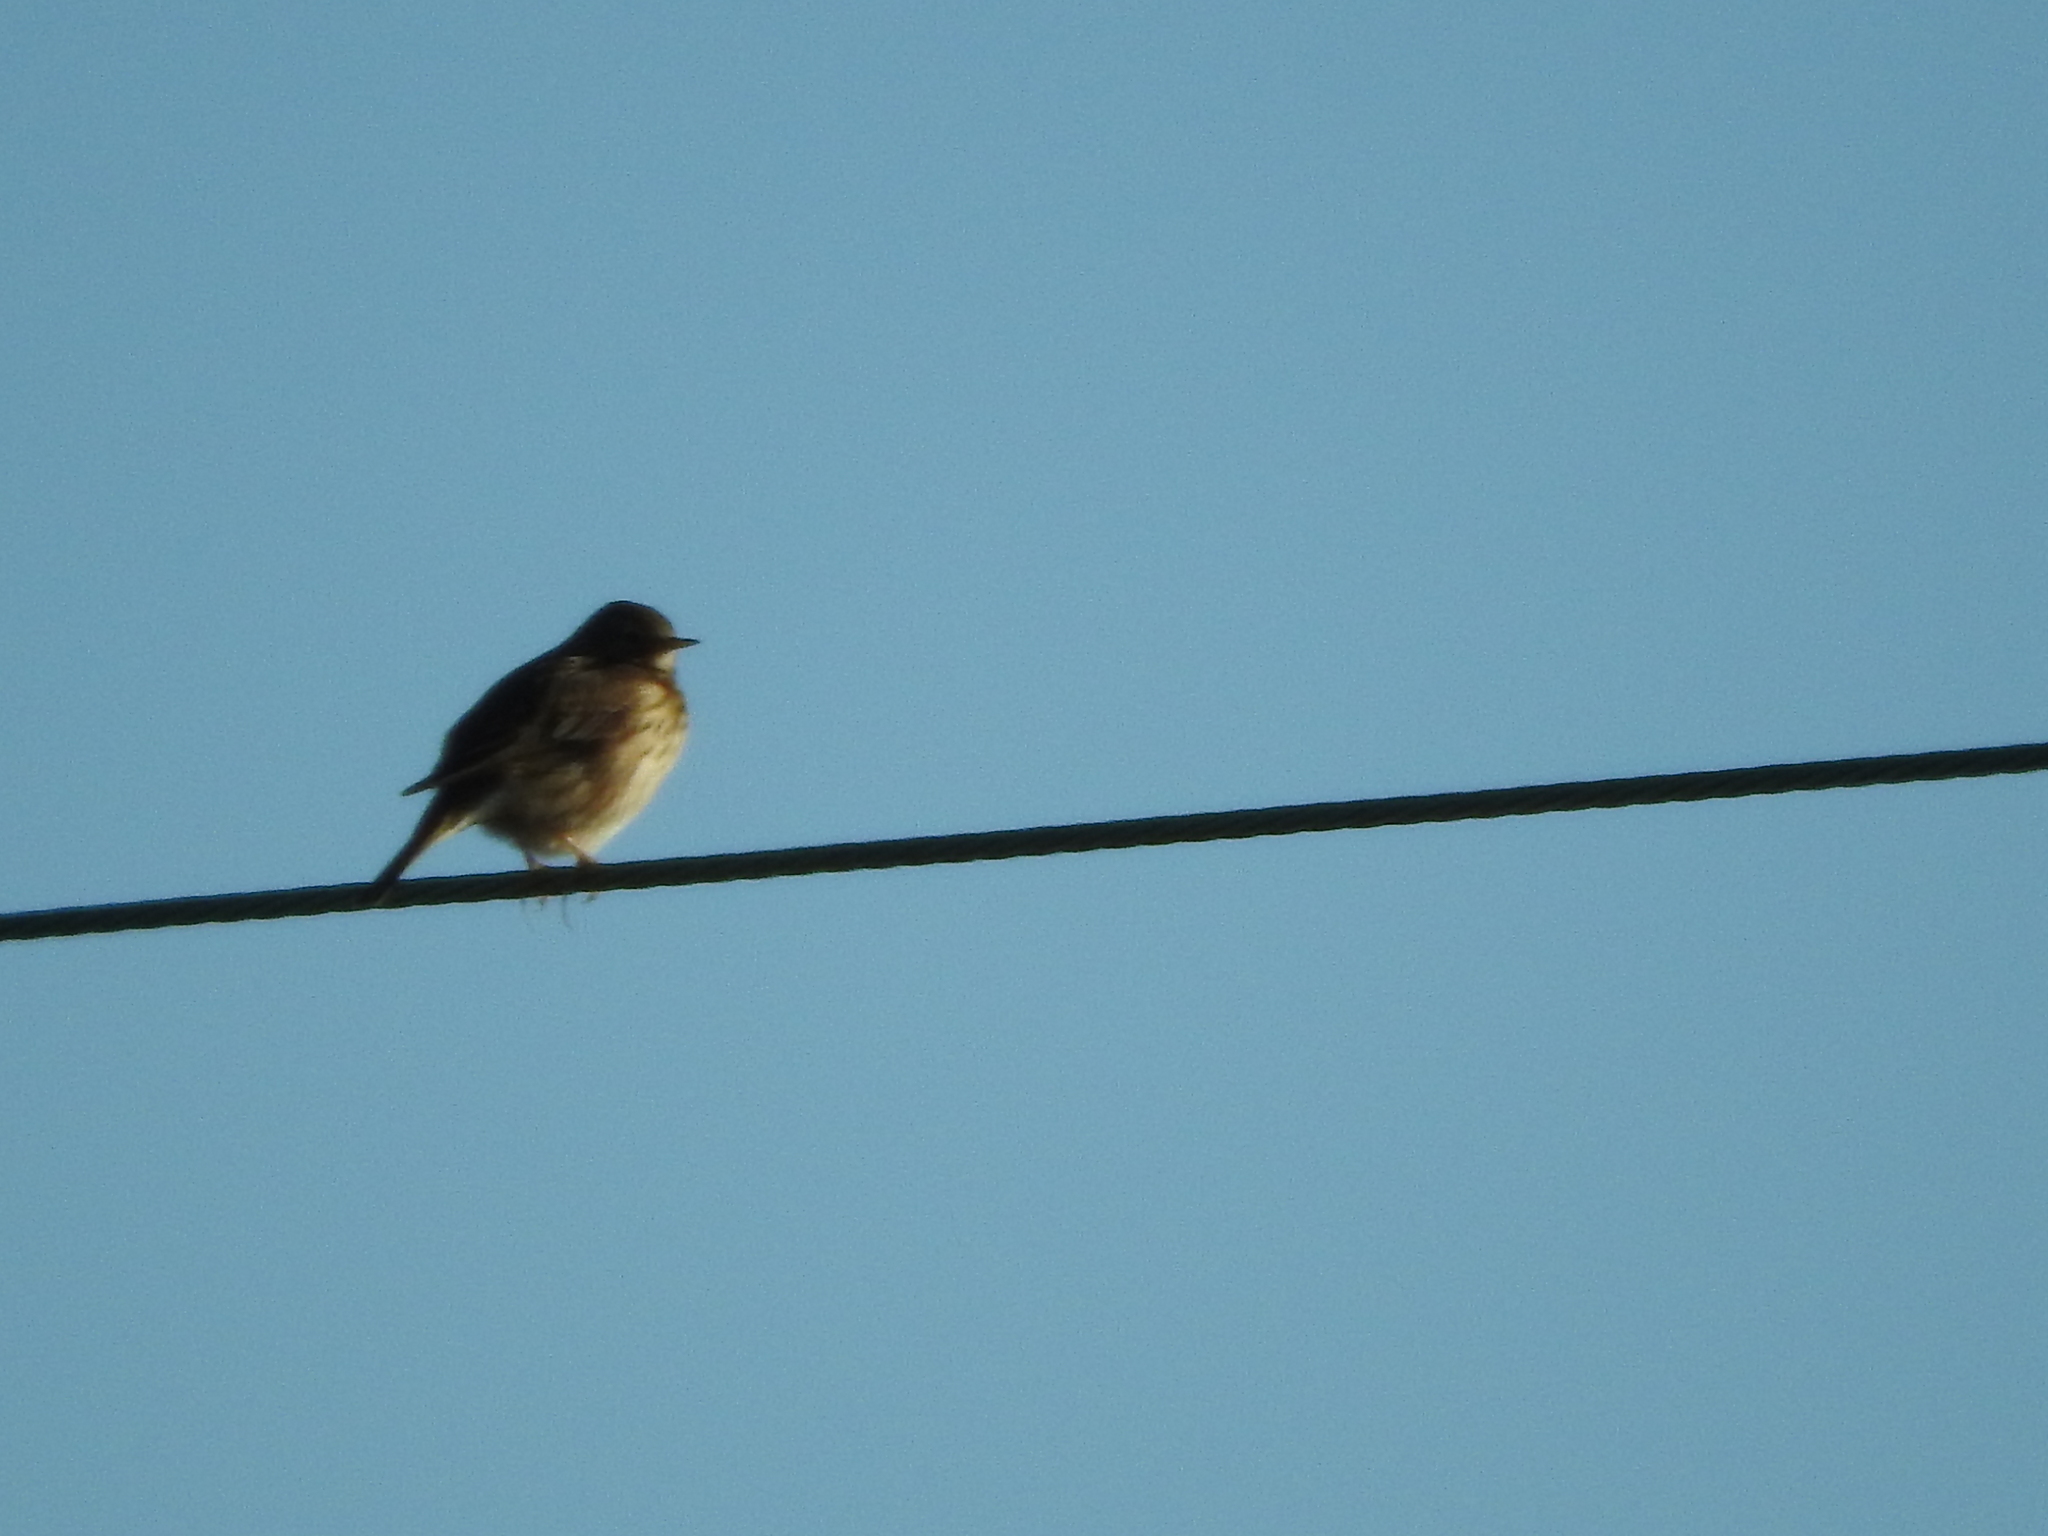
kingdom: Animalia
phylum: Chordata
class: Aves
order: Passeriformes
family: Motacillidae
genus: Anthus
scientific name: Anthus pratensis
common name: Meadow pipit
